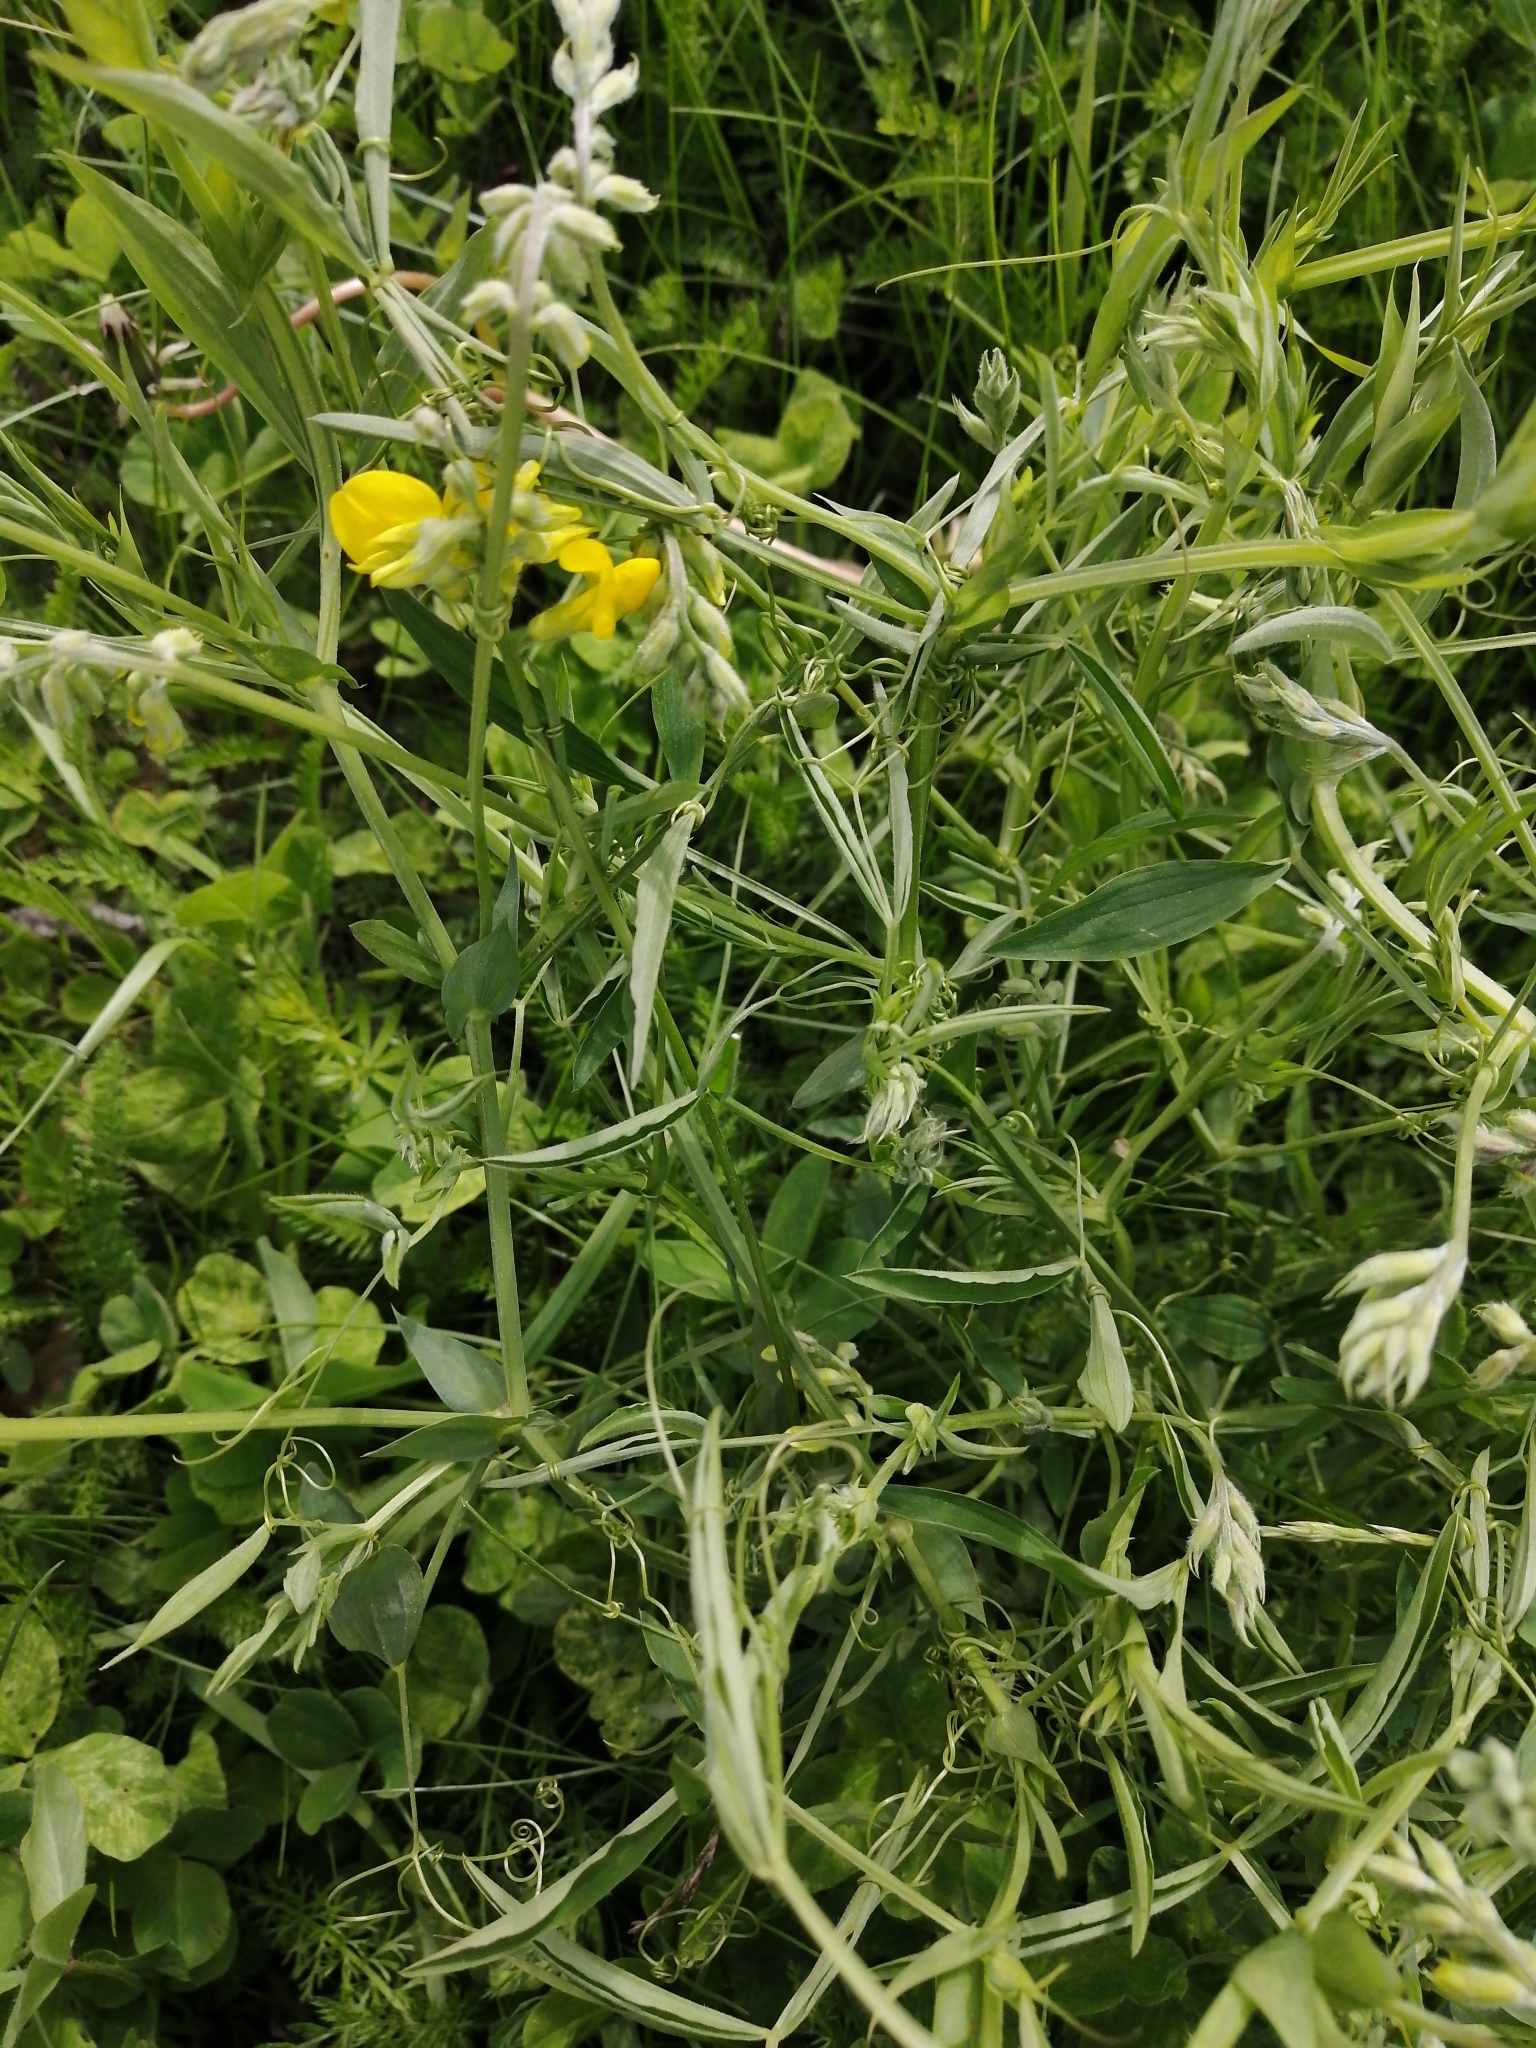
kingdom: Plantae
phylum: Tracheophyta
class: Magnoliopsida
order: Fabales
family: Fabaceae
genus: Lathyrus
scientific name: Lathyrus pratensis
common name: Meadow vetchling
